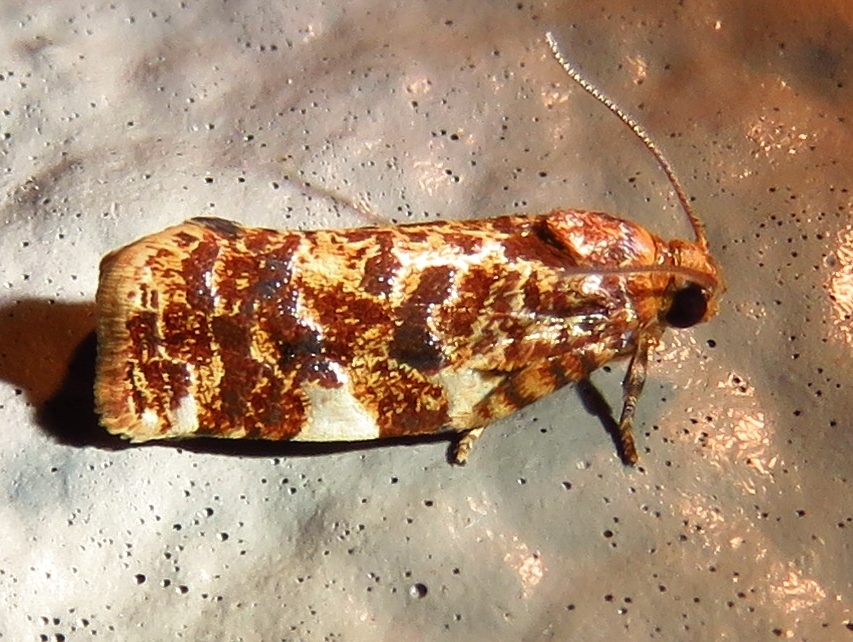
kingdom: Animalia
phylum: Arthropoda
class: Insecta
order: Lepidoptera
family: Tortricidae
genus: Archips
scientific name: Archips argyrospila
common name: Fruit-tree leafroller moth
